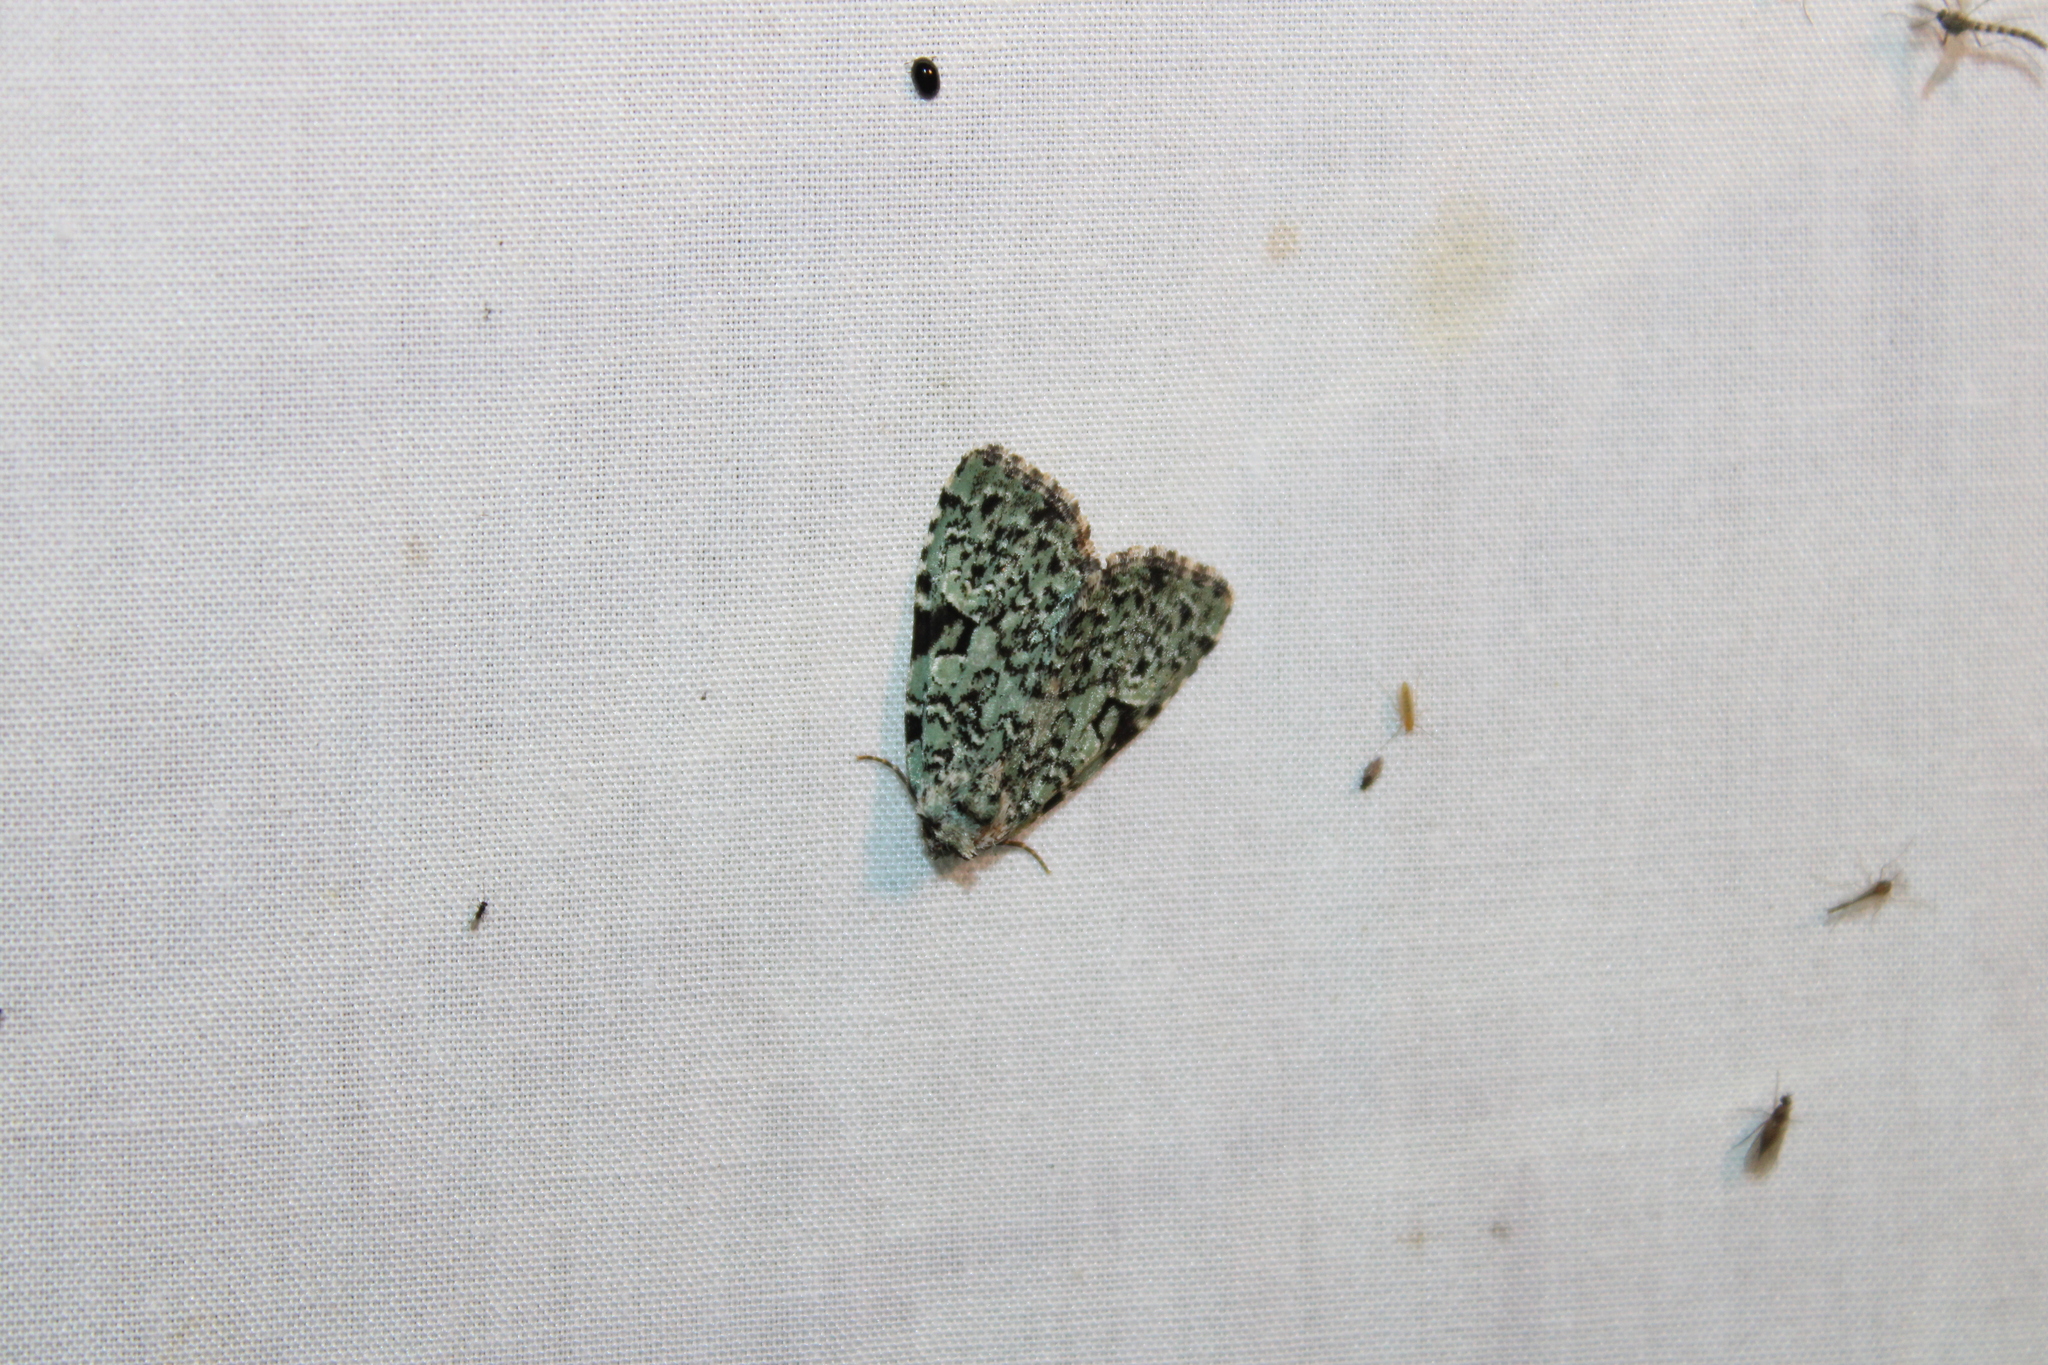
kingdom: Animalia
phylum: Arthropoda
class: Insecta
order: Lepidoptera
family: Noctuidae
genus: Leuconycta
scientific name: Leuconycta diphteroides
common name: Green leuconycta moth
